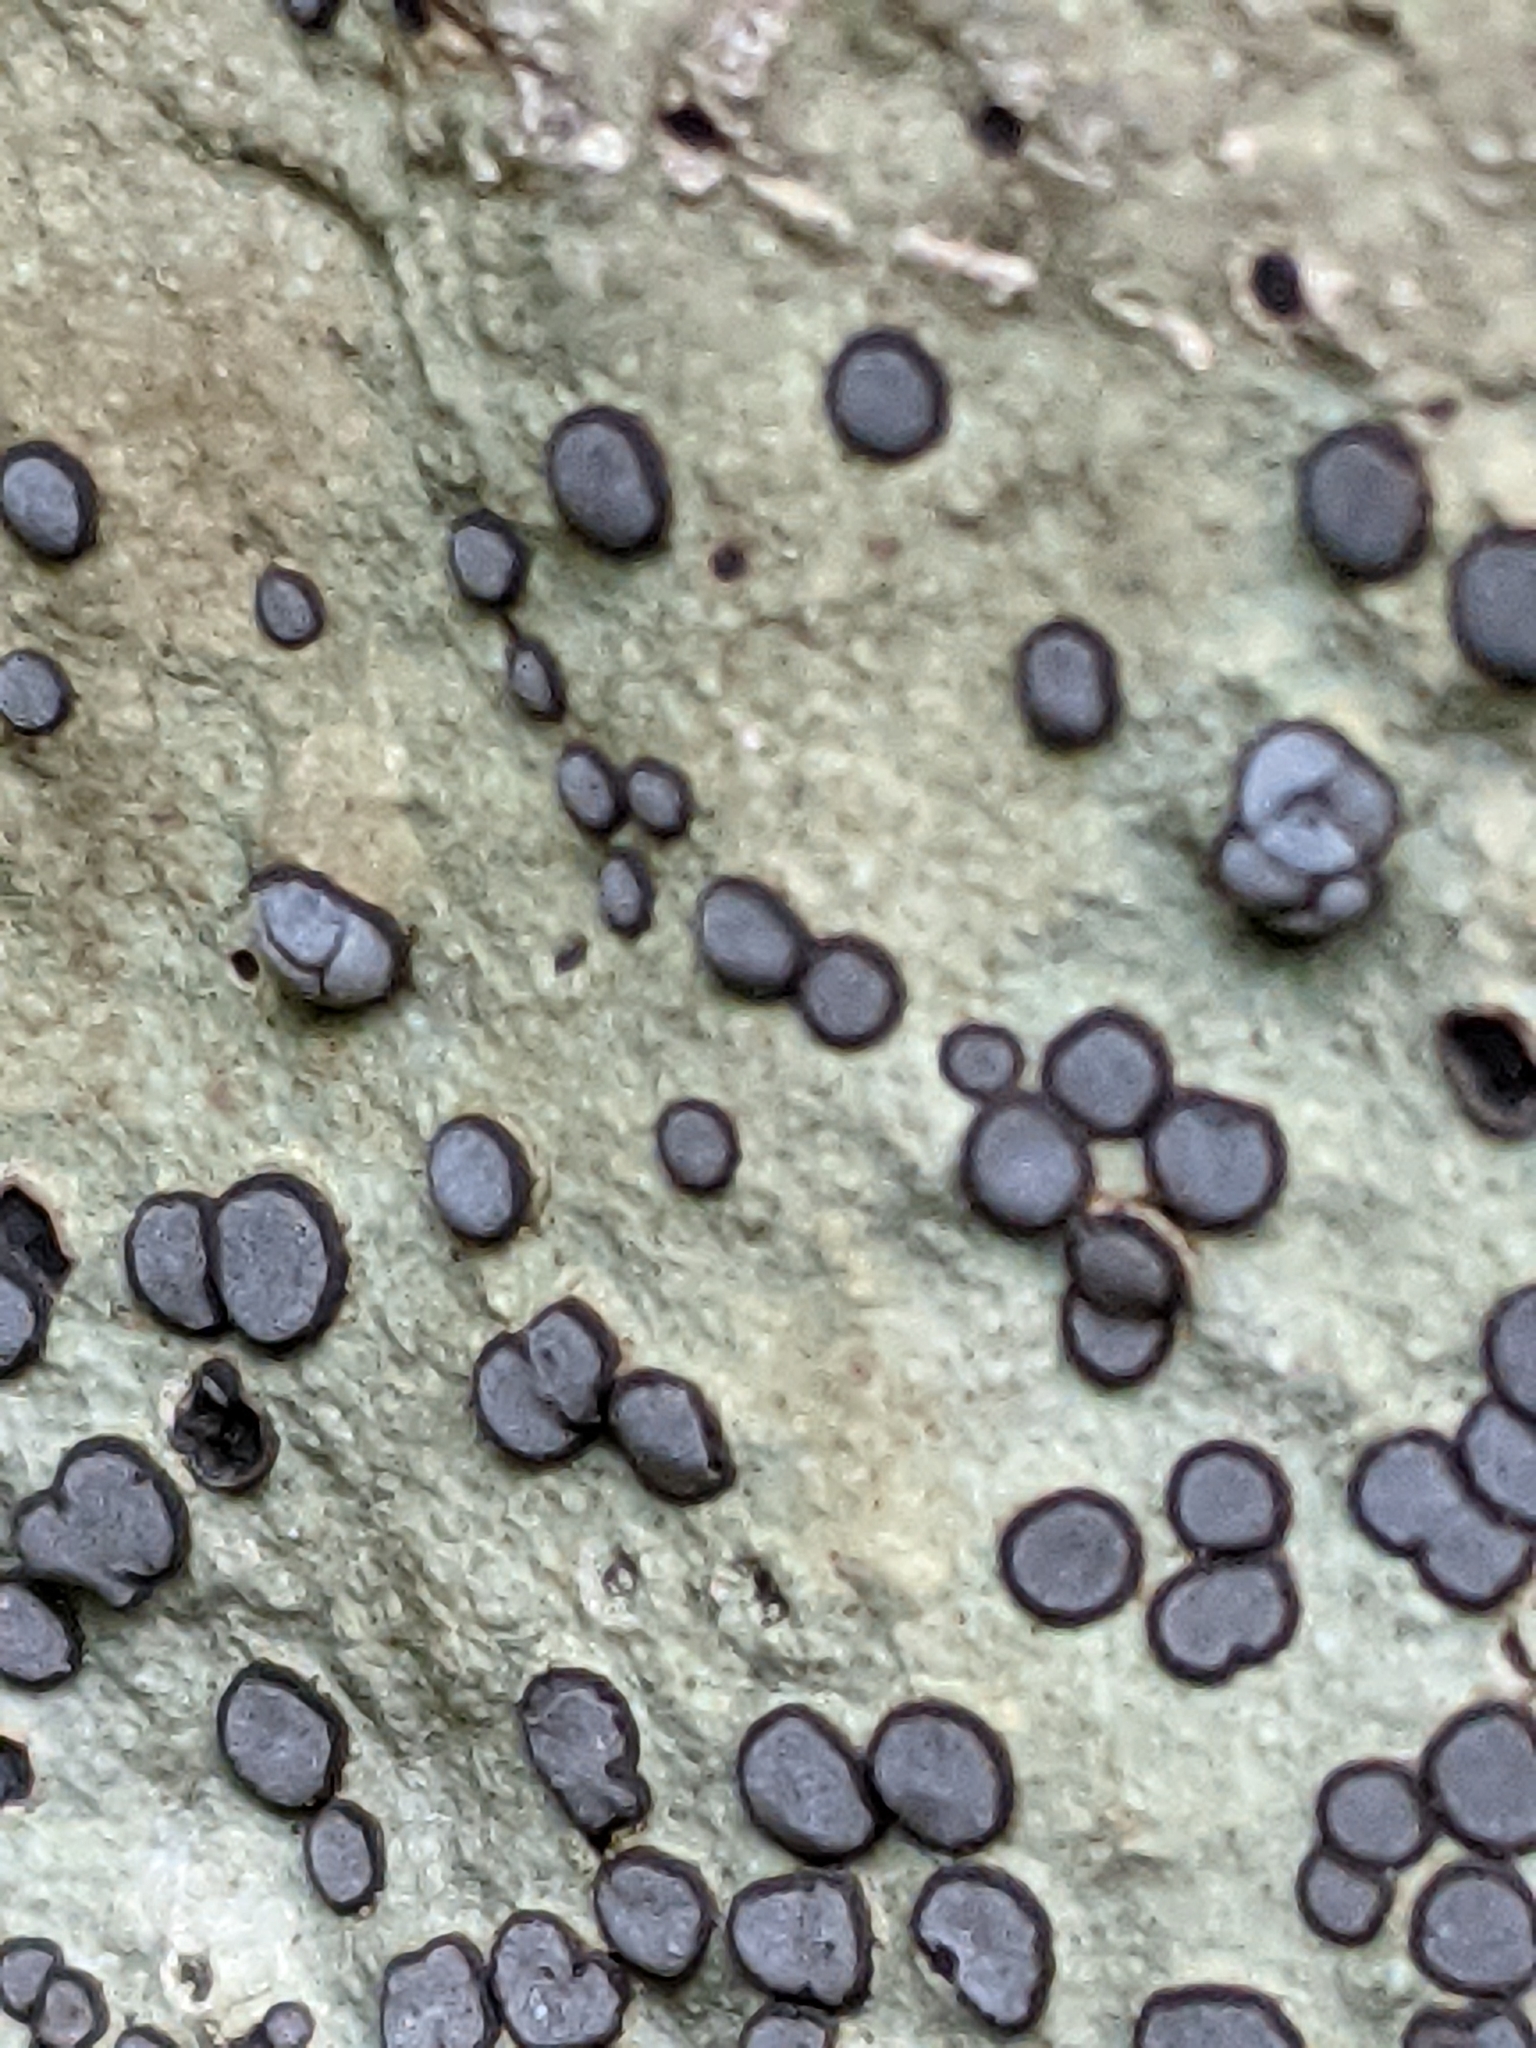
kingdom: Fungi
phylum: Ascomycota
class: Lecanoromycetes
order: Lecideales
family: Lecideaceae
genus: Porpidia
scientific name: Porpidia albocaerulescens
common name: Smokey-eyed boulder lichen
